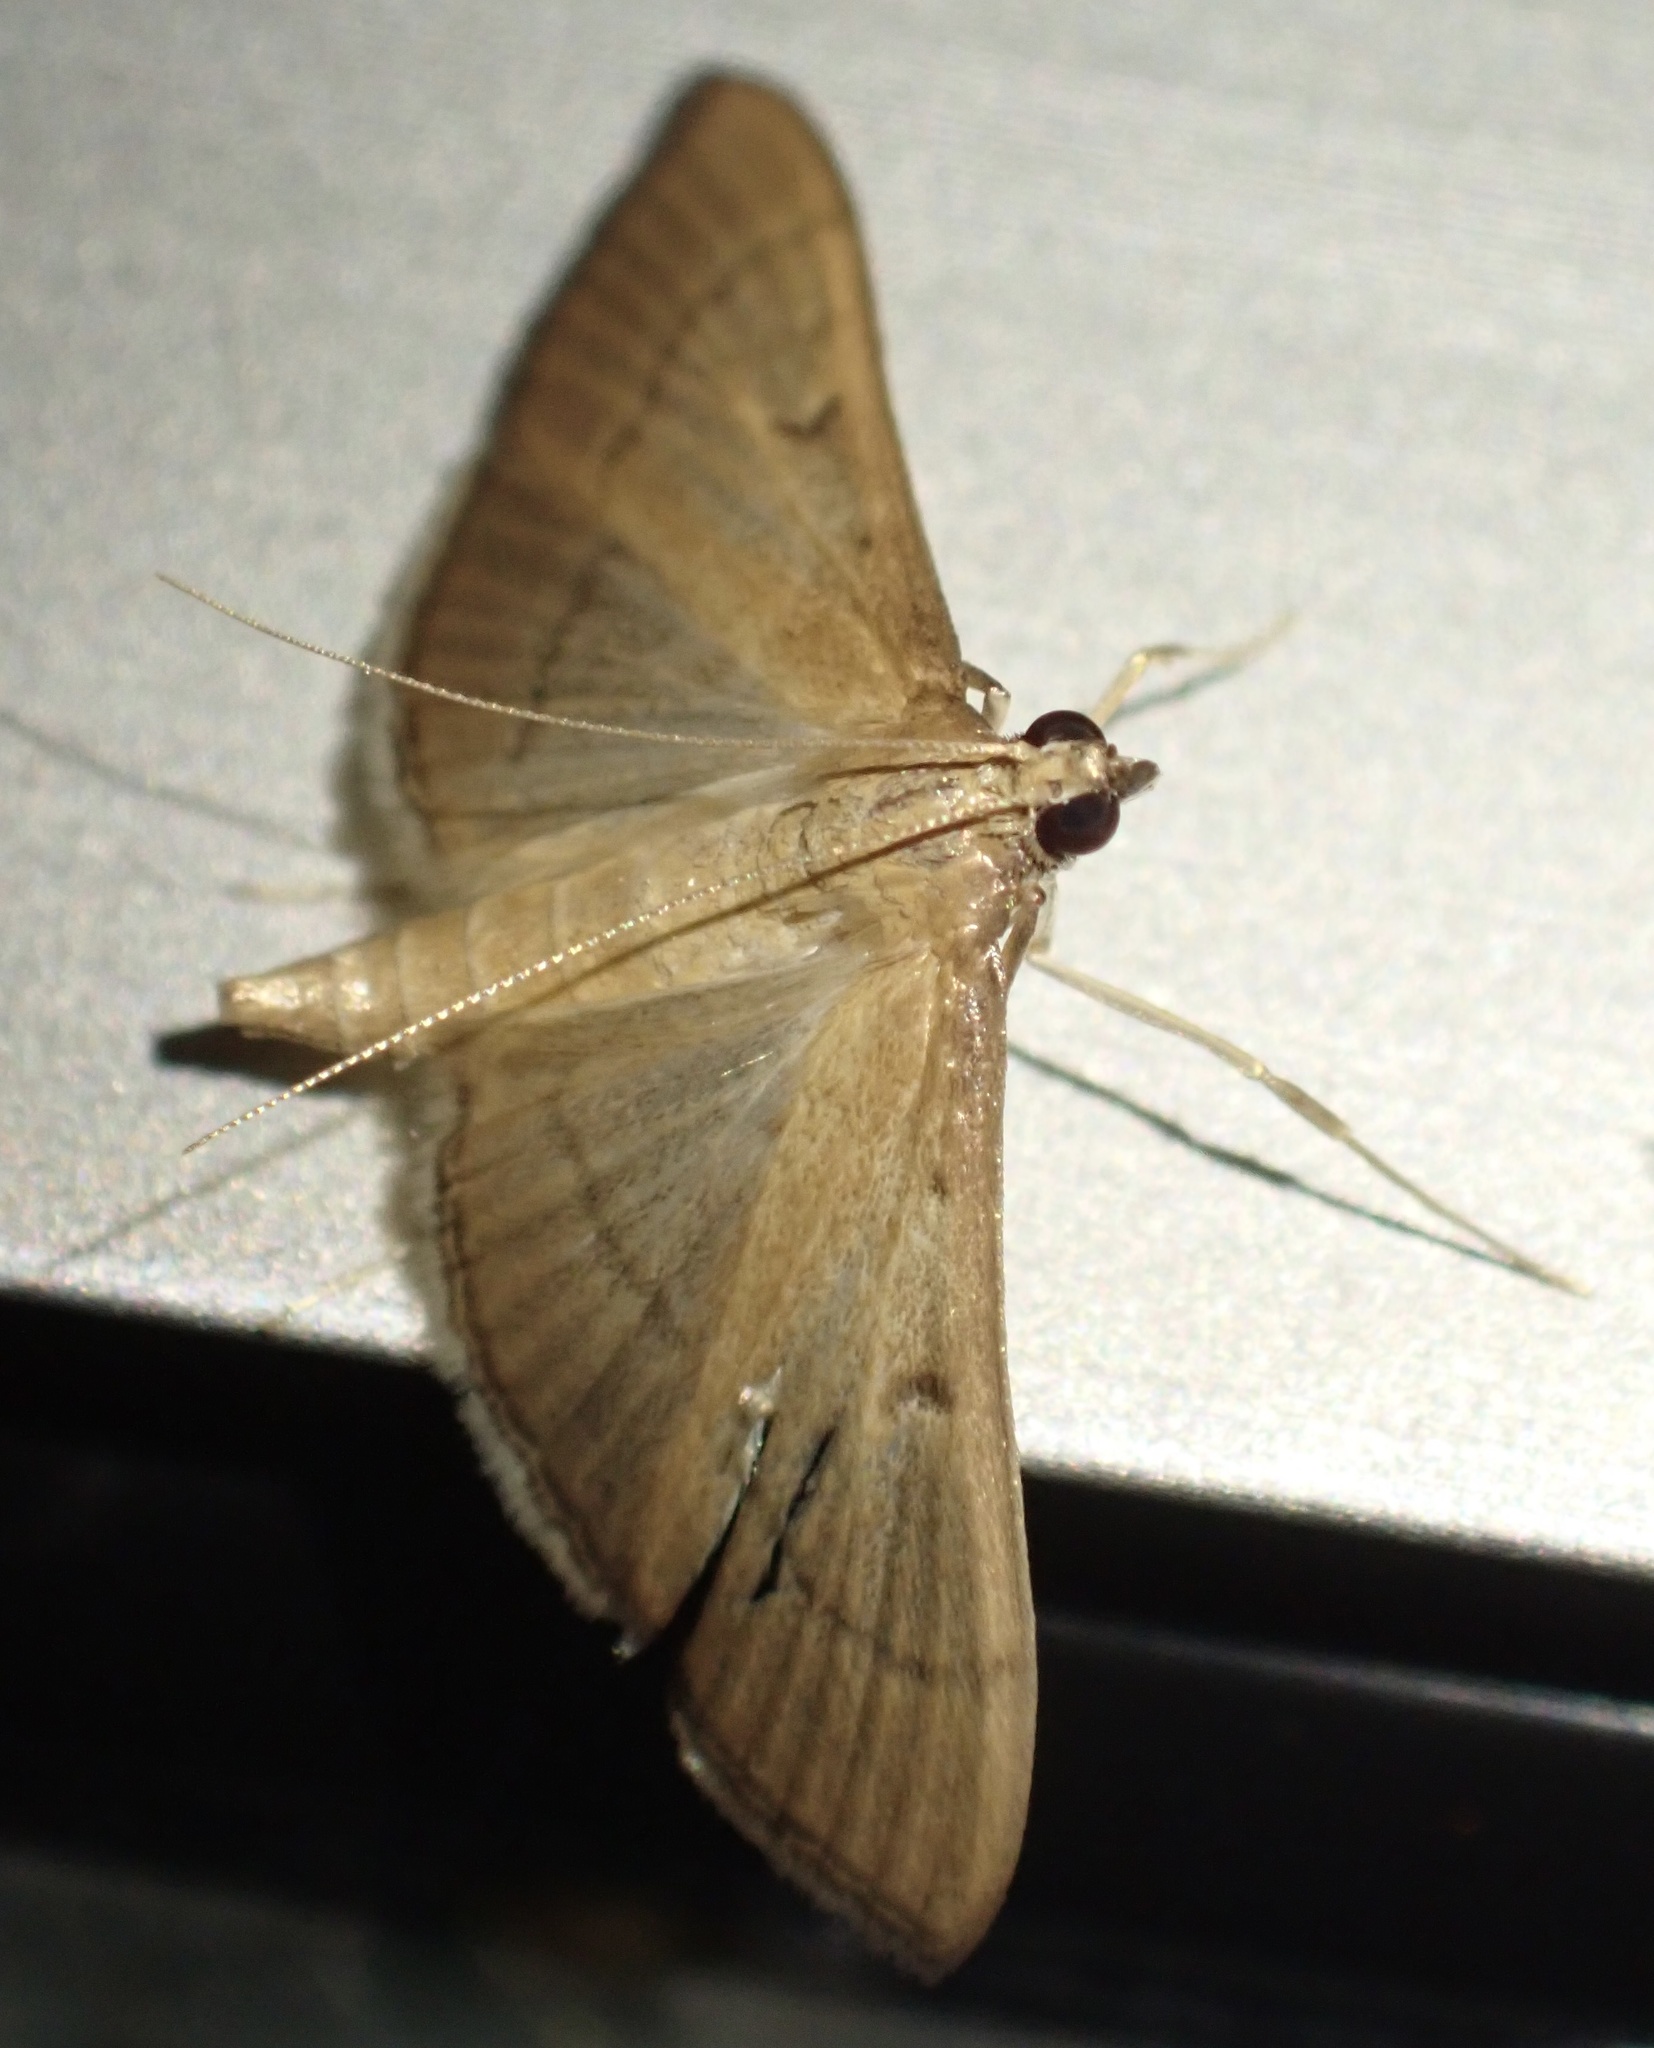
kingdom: Animalia
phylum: Arthropoda
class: Insecta
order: Lepidoptera
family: Crambidae
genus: Bradina
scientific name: Bradina admixtalis
